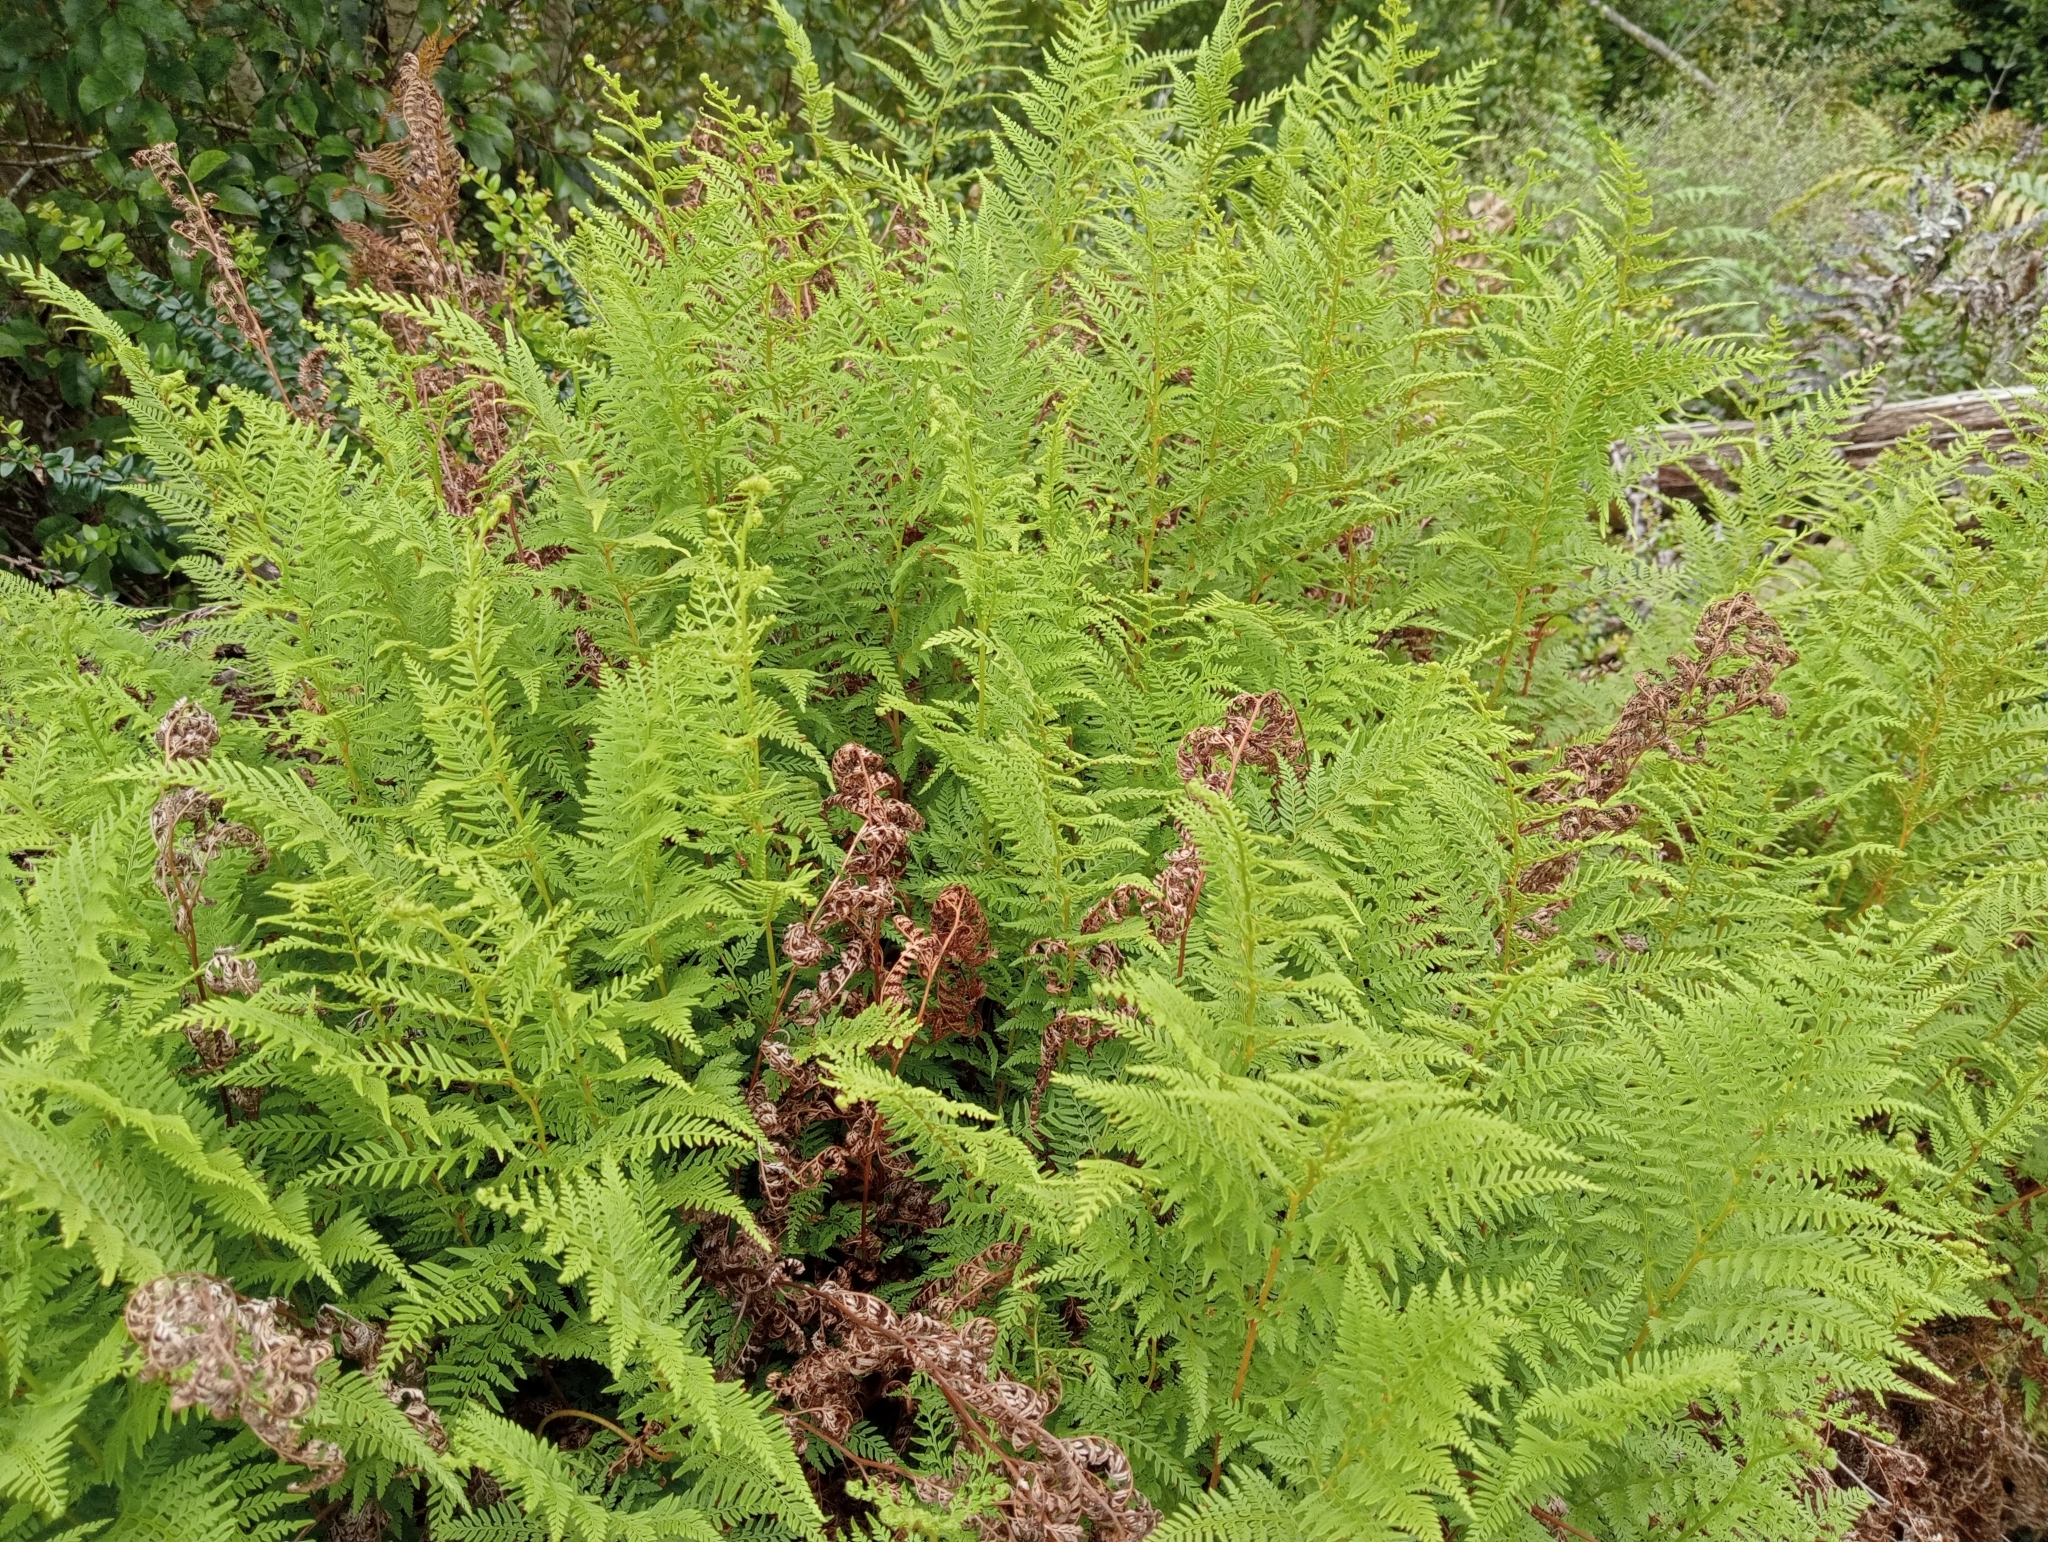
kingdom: Plantae
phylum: Tracheophyta
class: Polypodiopsida
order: Polypodiales
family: Dennstaedtiaceae
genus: Paesia
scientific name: Paesia scaberula
